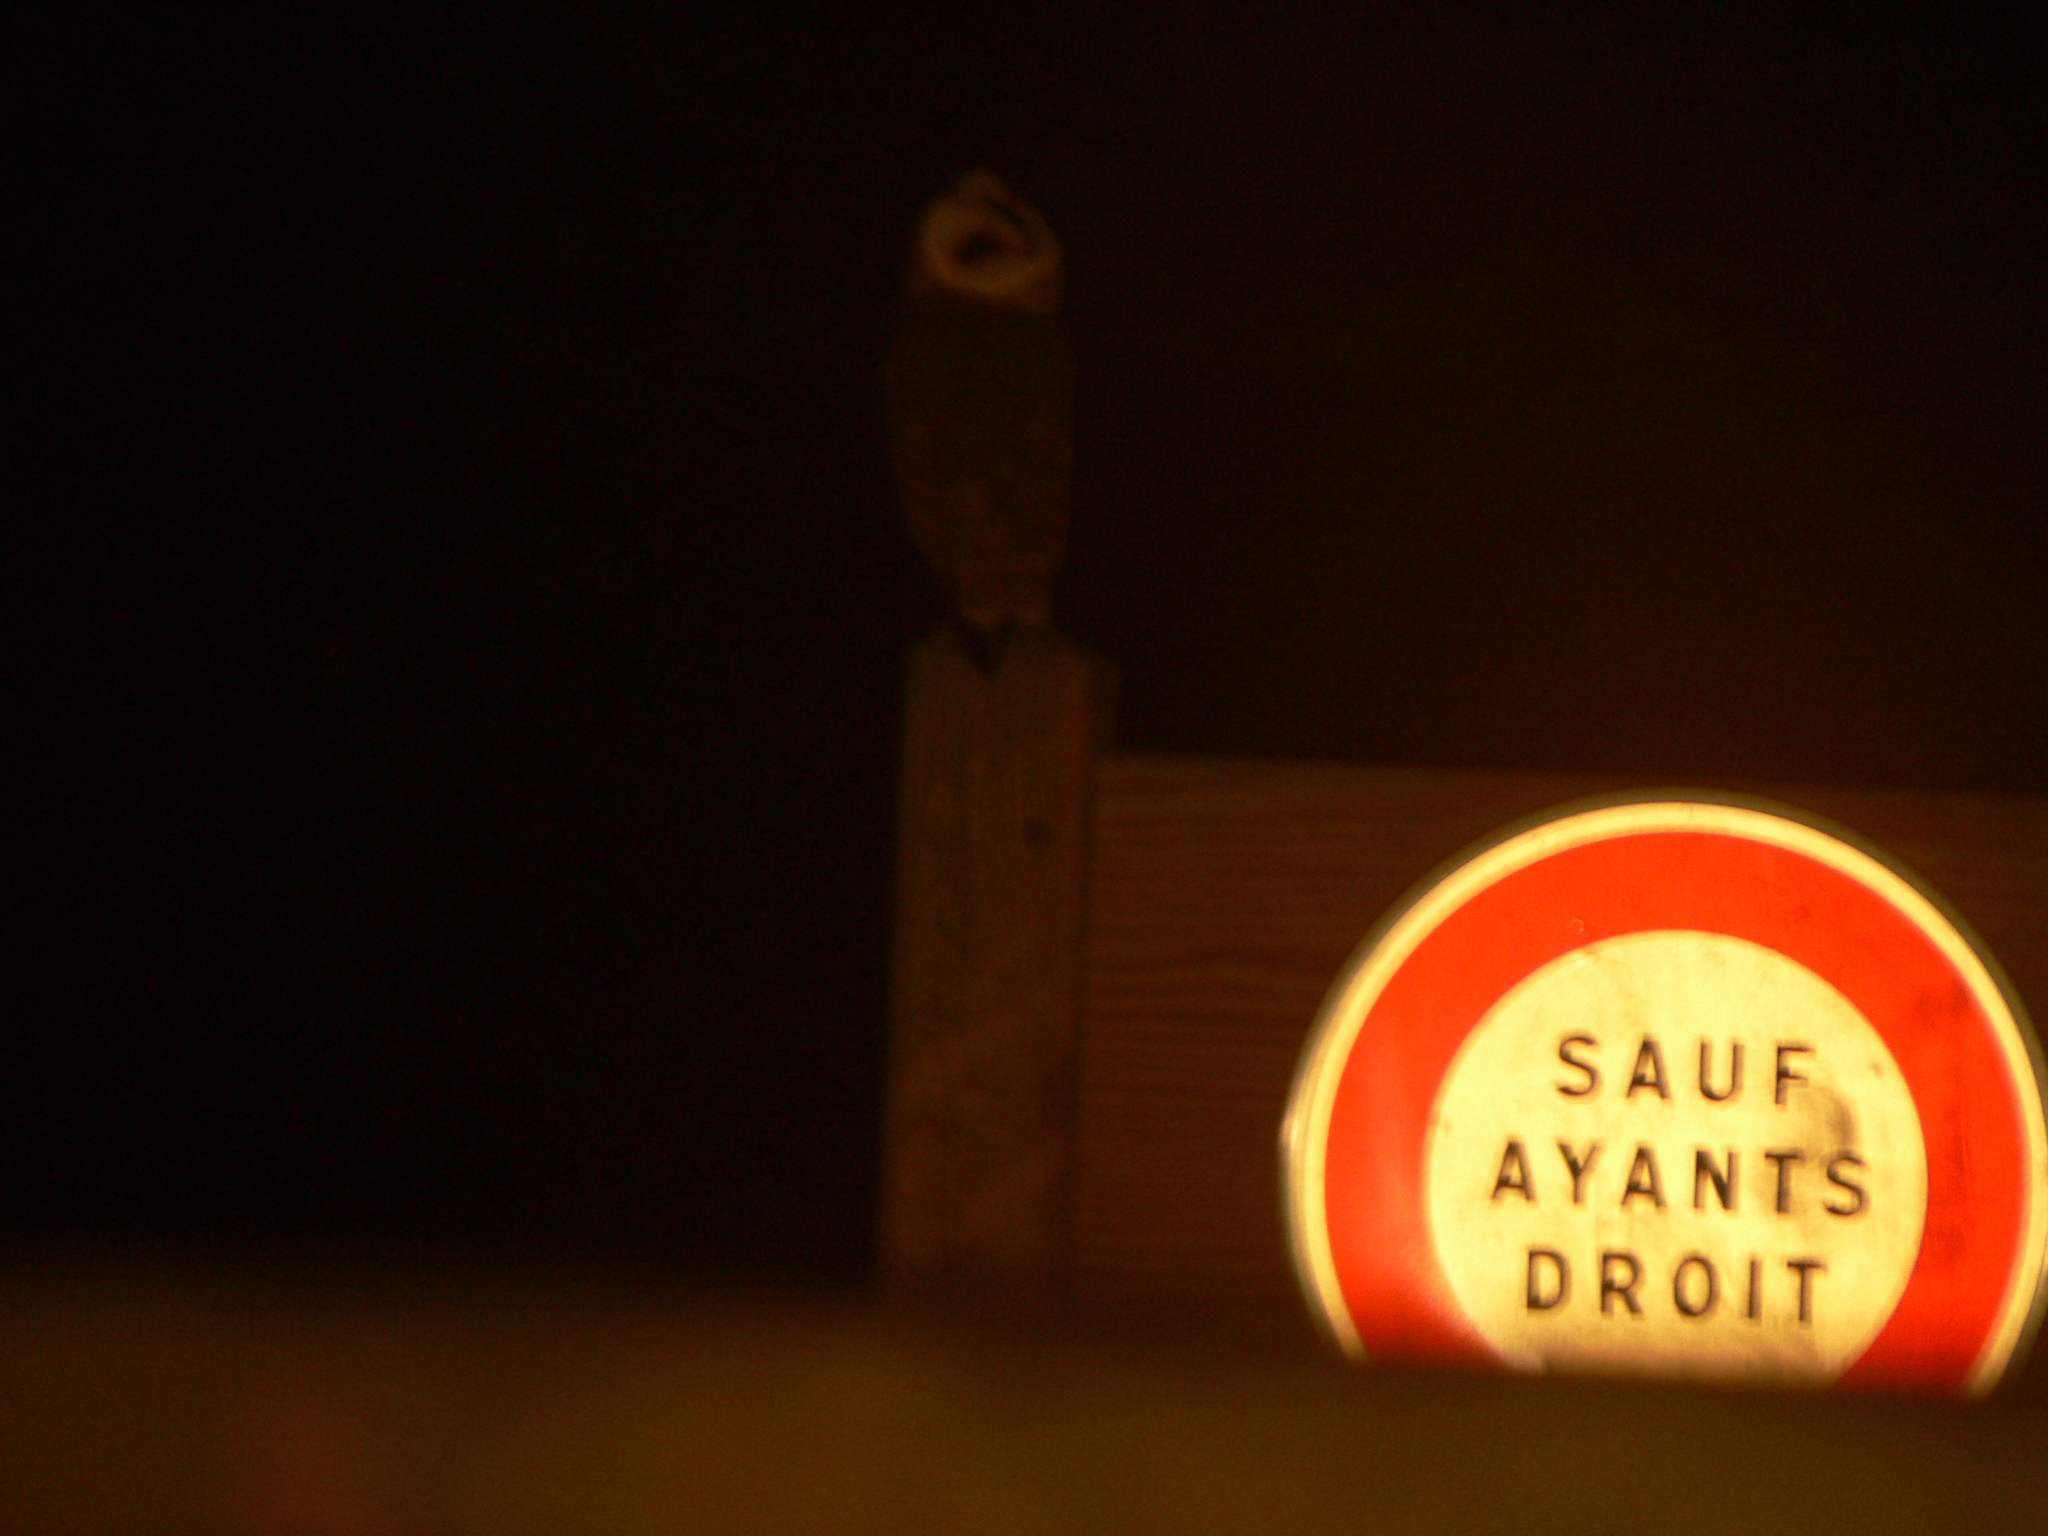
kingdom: Animalia
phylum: Chordata
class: Aves
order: Strigiformes
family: Tytonidae
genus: Tyto
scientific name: Tyto alba
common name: Barn owl
